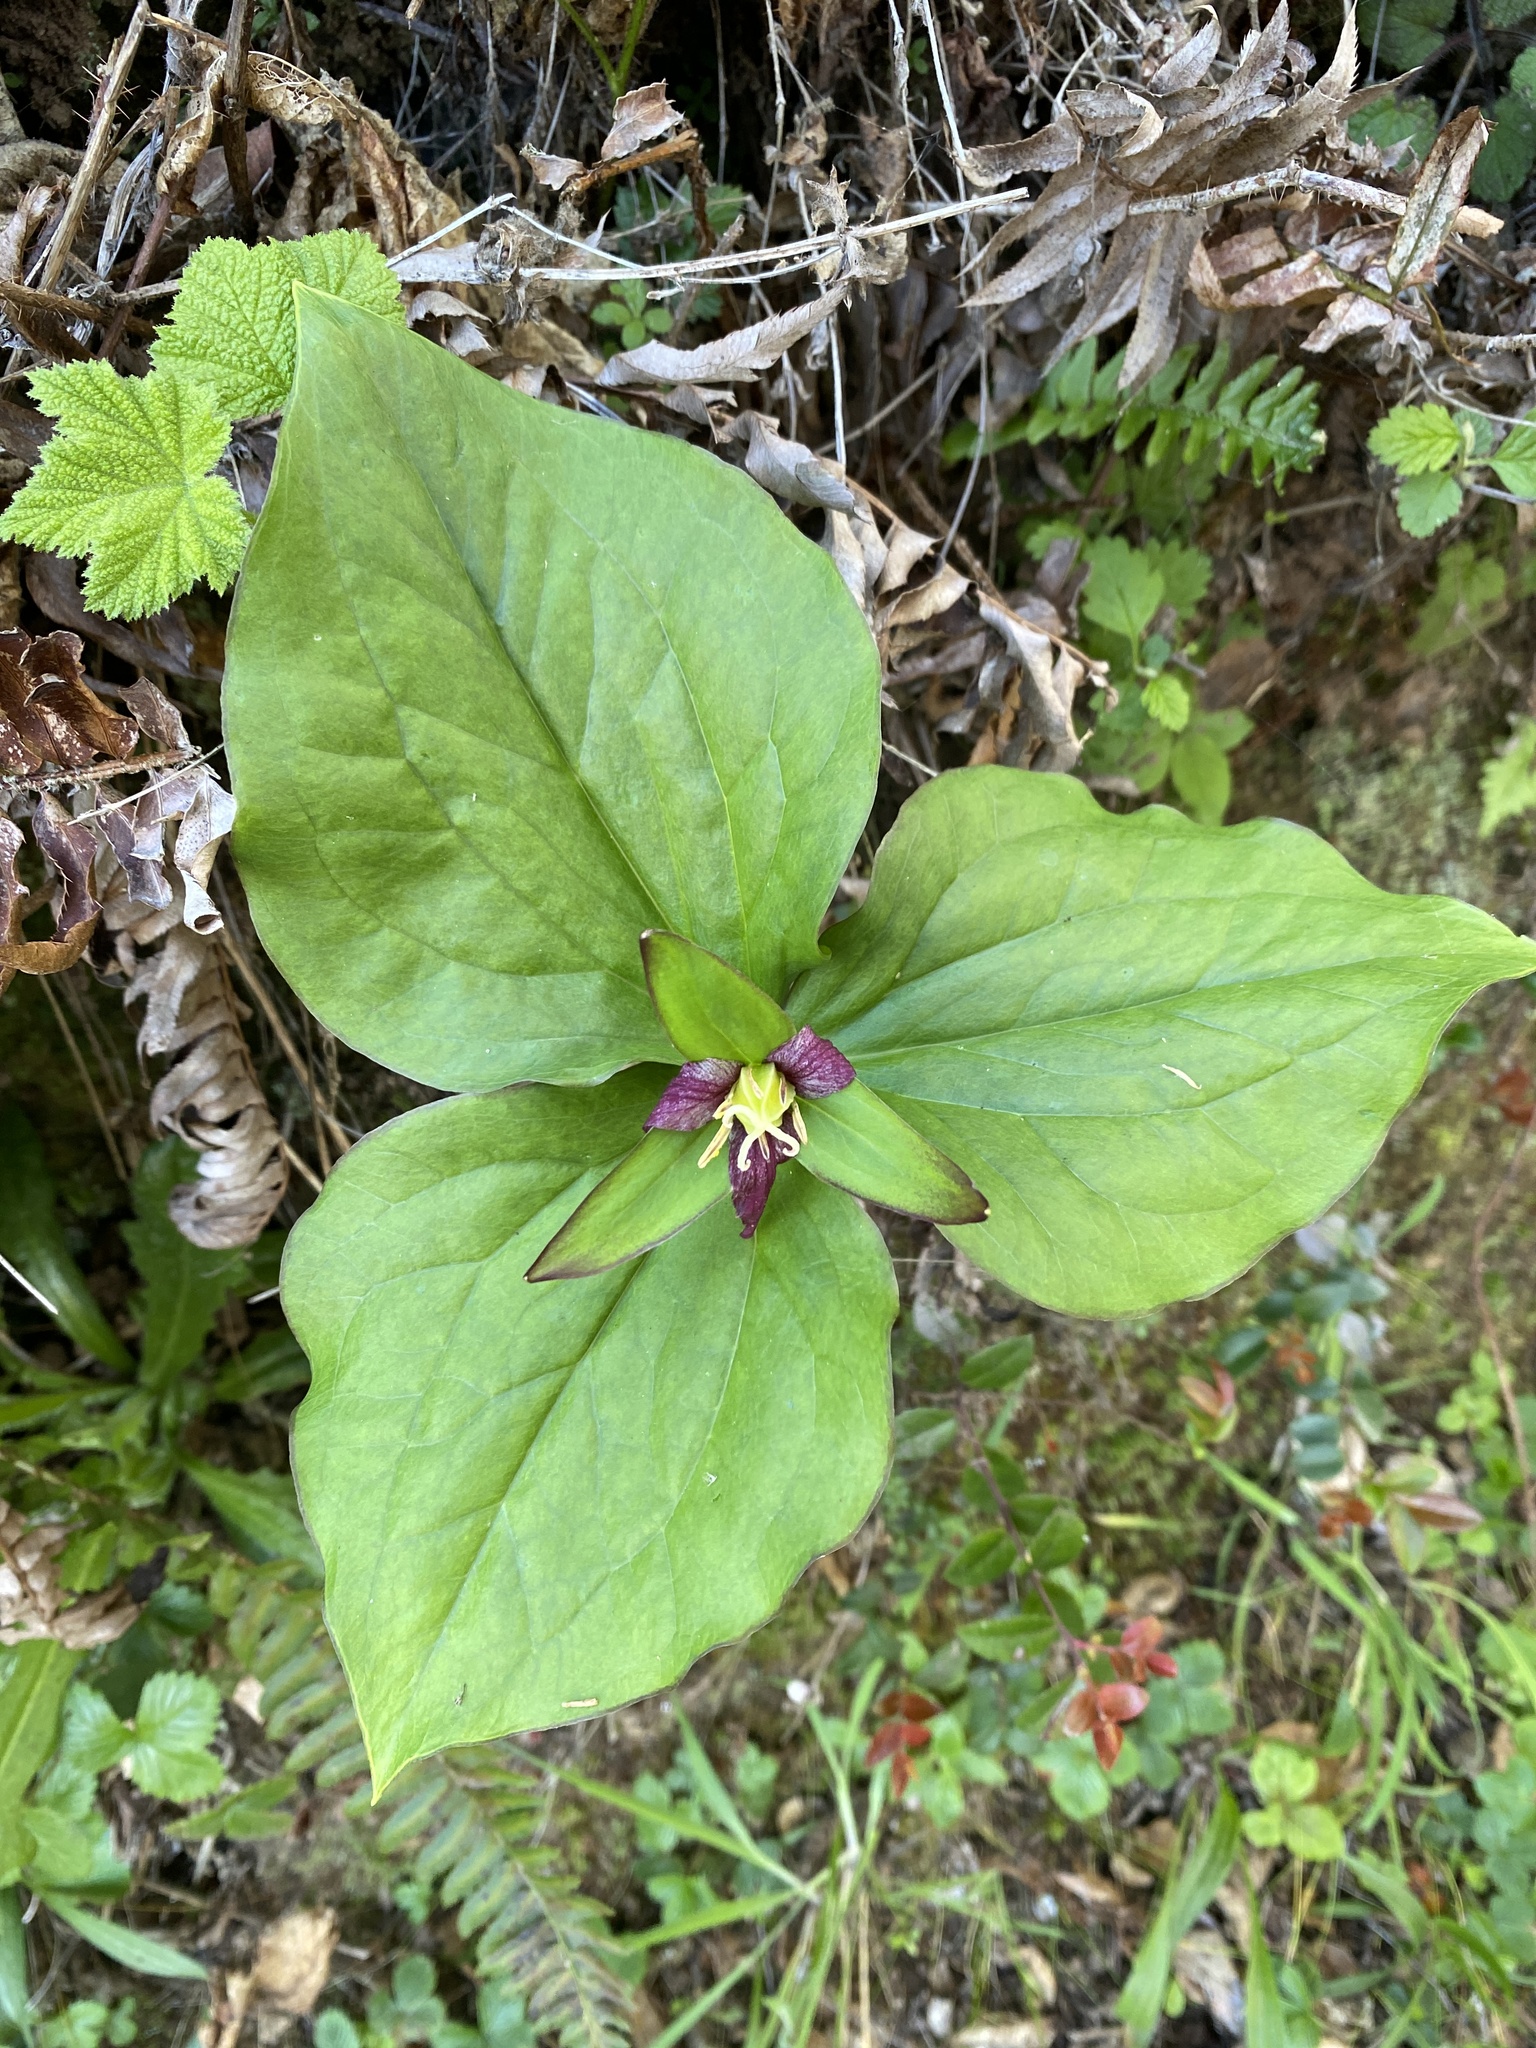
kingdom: Plantae
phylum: Tracheophyta
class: Liliopsida
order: Liliales
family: Melanthiaceae
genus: Trillium
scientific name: Trillium ovatum
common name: Pacific trillium
